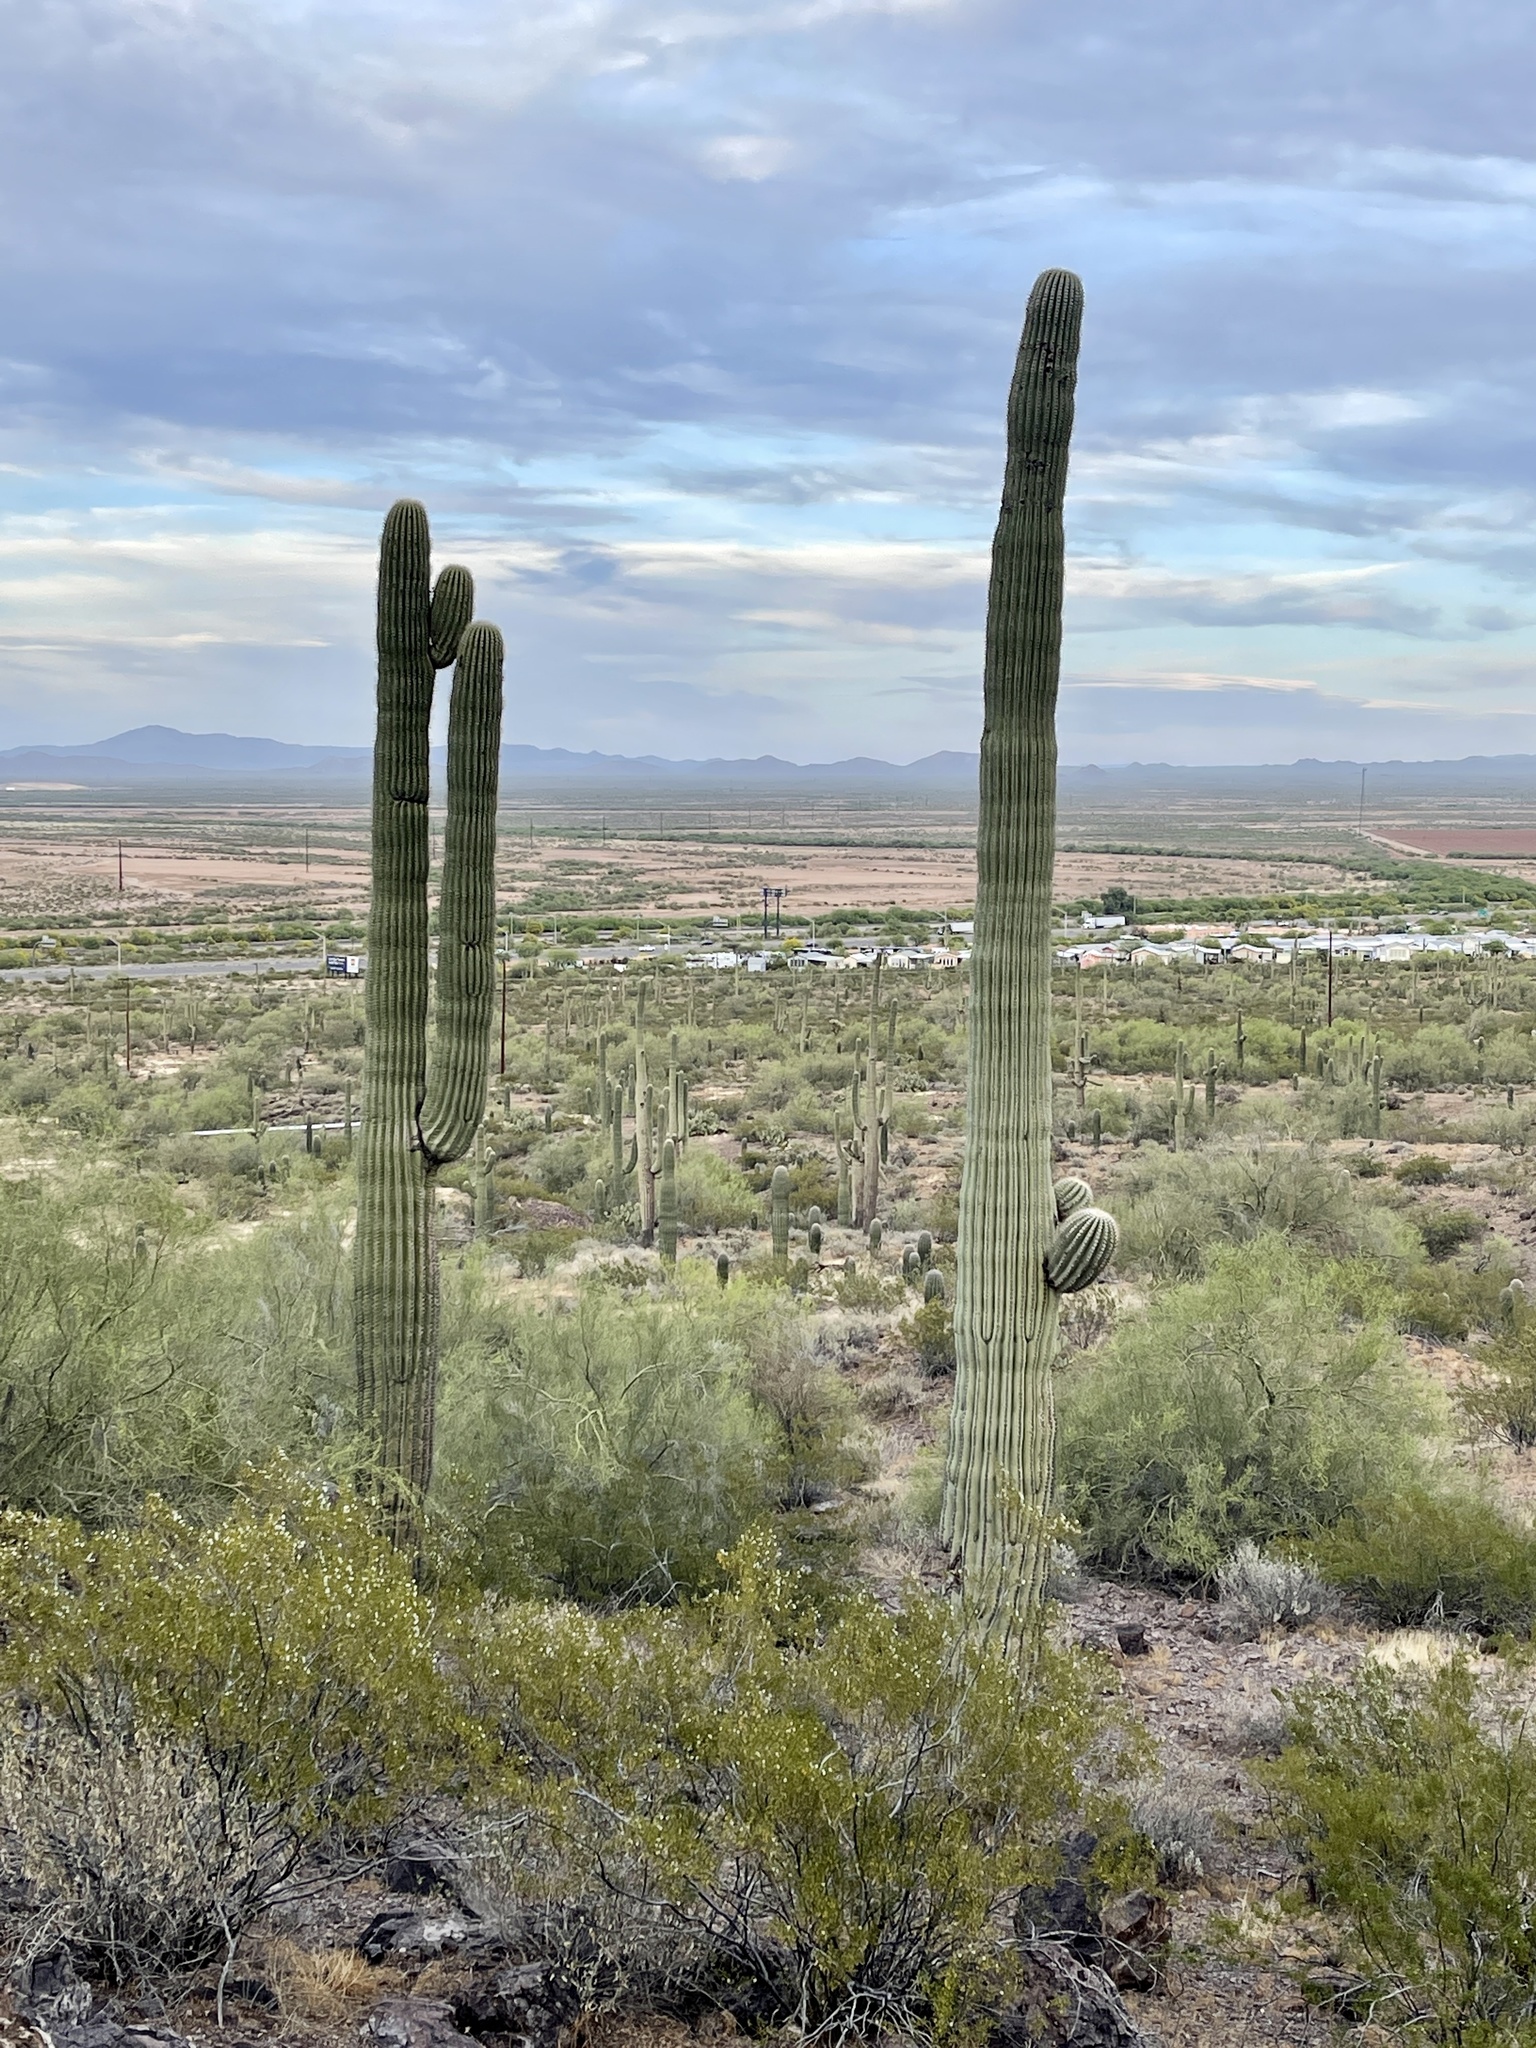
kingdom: Plantae
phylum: Tracheophyta
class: Magnoliopsida
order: Caryophyllales
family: Cactaceae
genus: Carnegiea
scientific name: Carnegiea gigantea
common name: Saguaro
